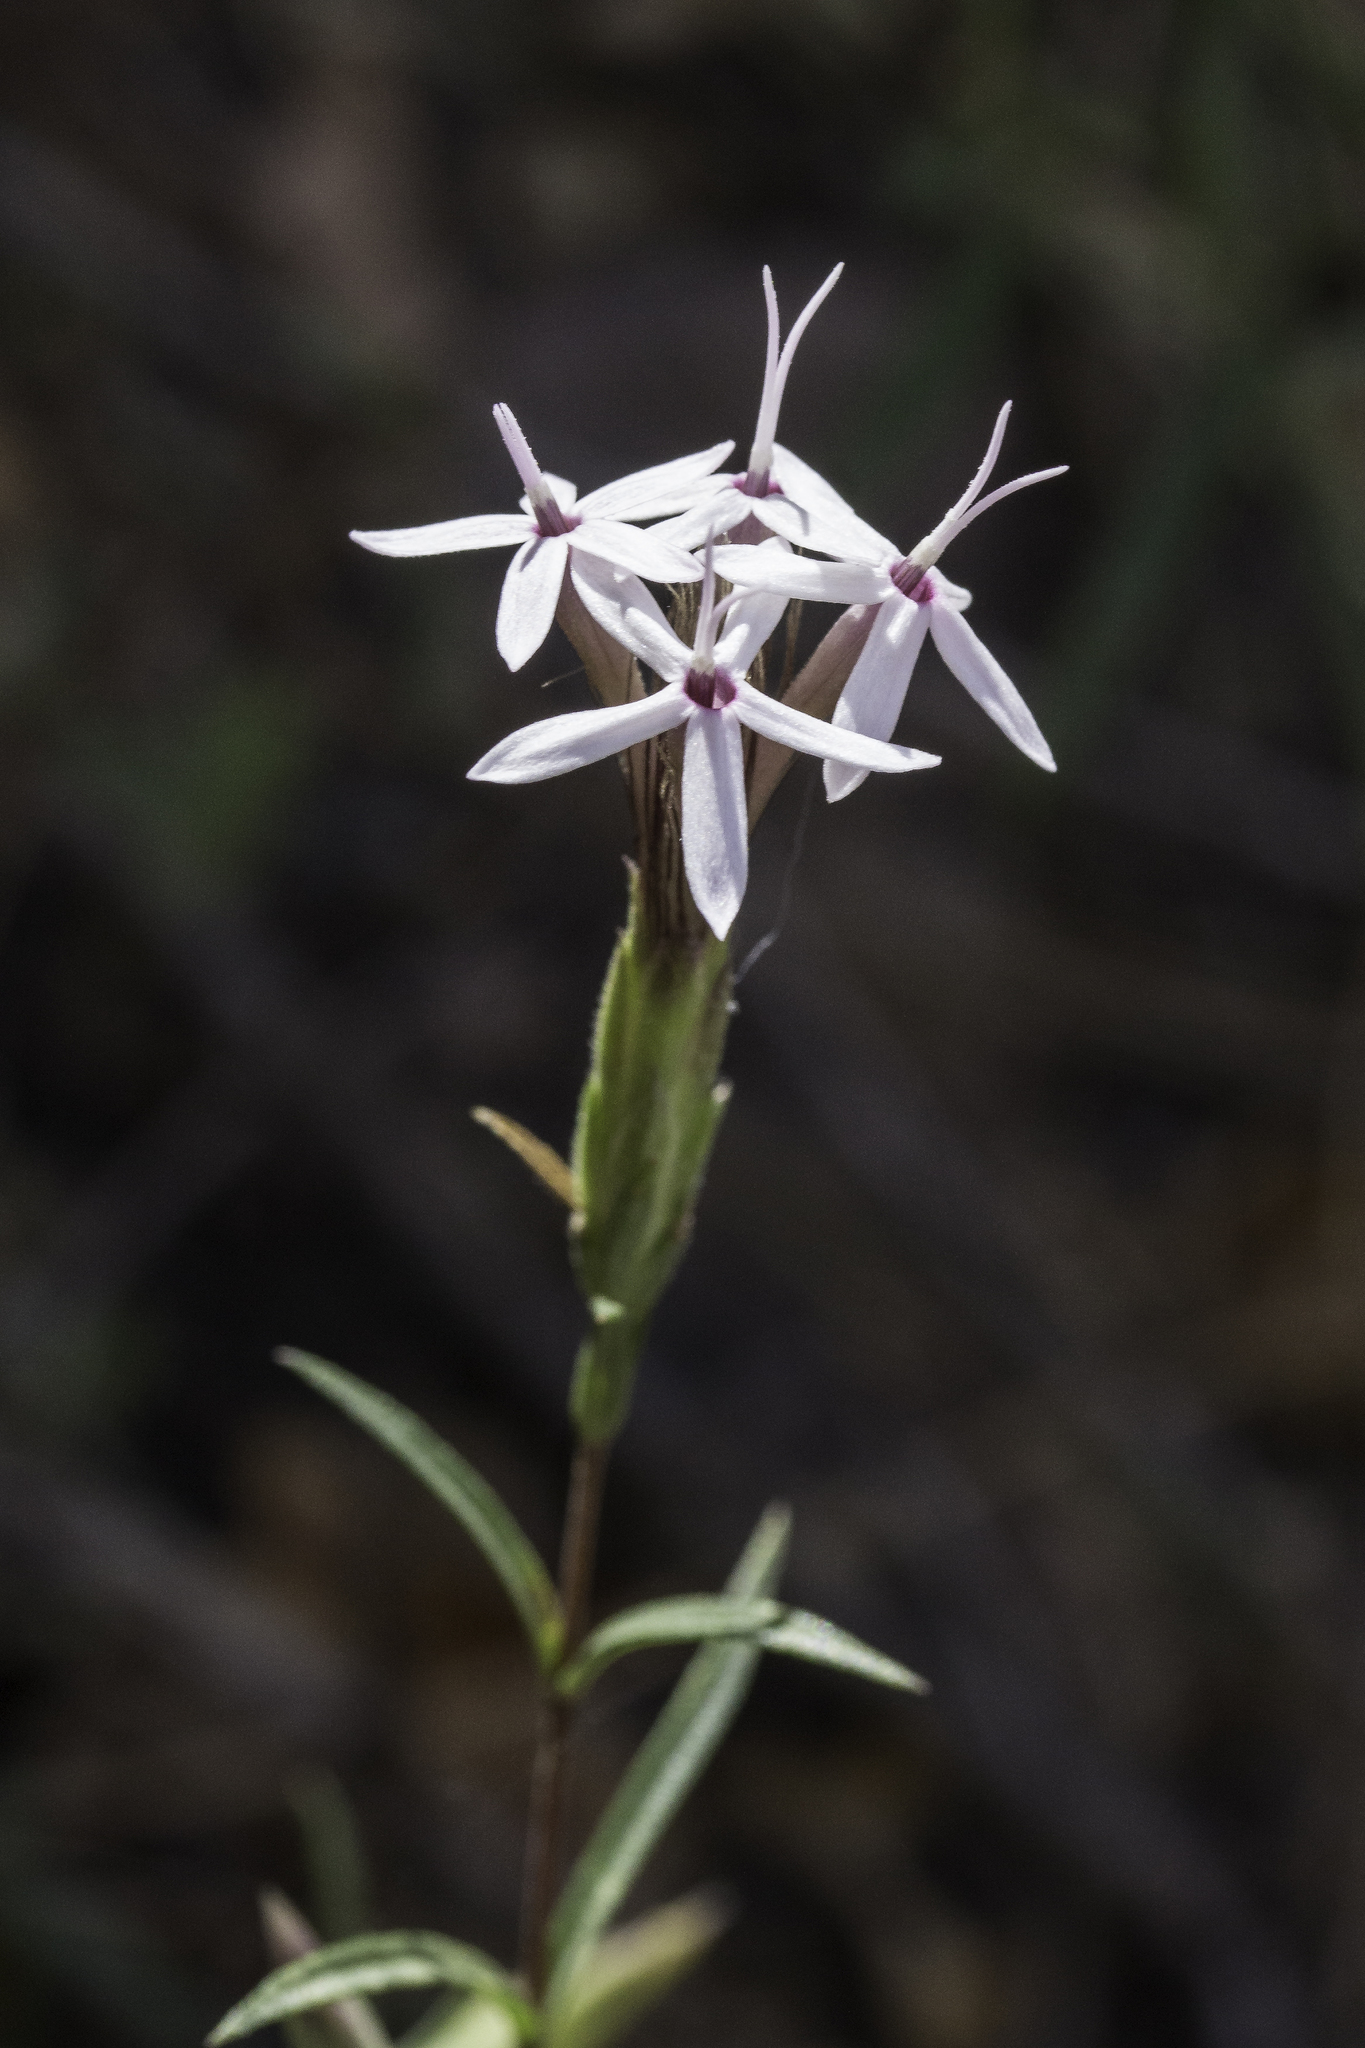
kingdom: Plantae
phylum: Tracheophyta
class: Magnoliopsida
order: Asterales
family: Asteraceae
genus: Carphochaete
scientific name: Carphochaete bigelovii
